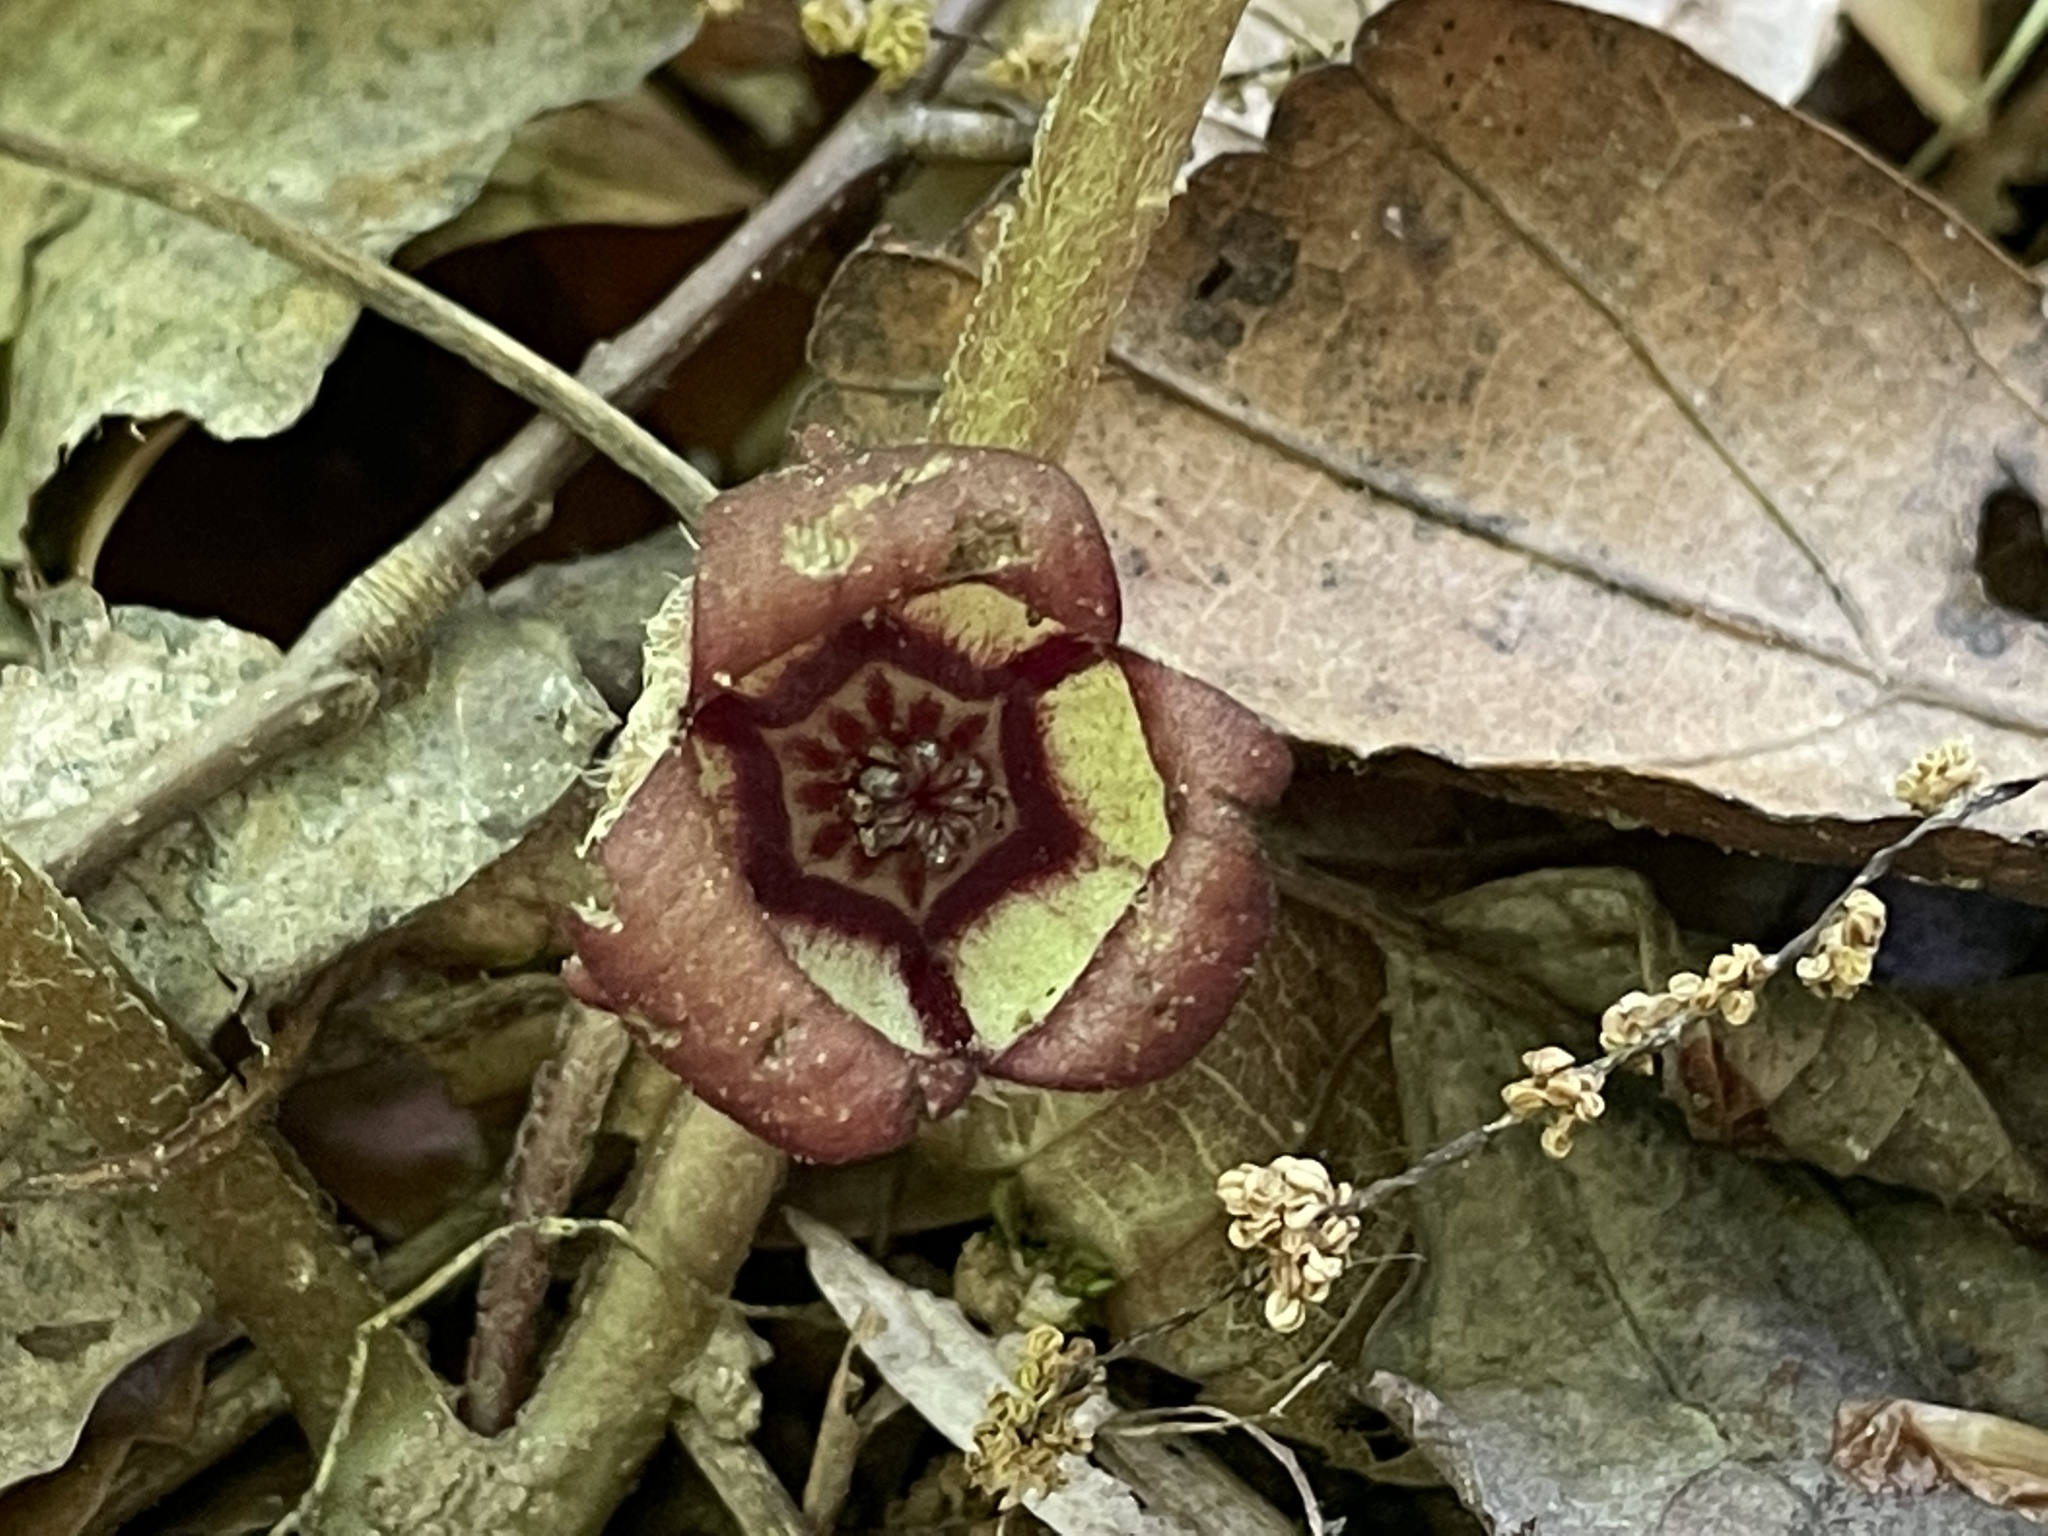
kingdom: Plantae
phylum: Tracheophyta
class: Magnoliopsida
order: Piperales
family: Aristolochiaceae
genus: Asarum
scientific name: Asarum canadense
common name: Wild ginger
